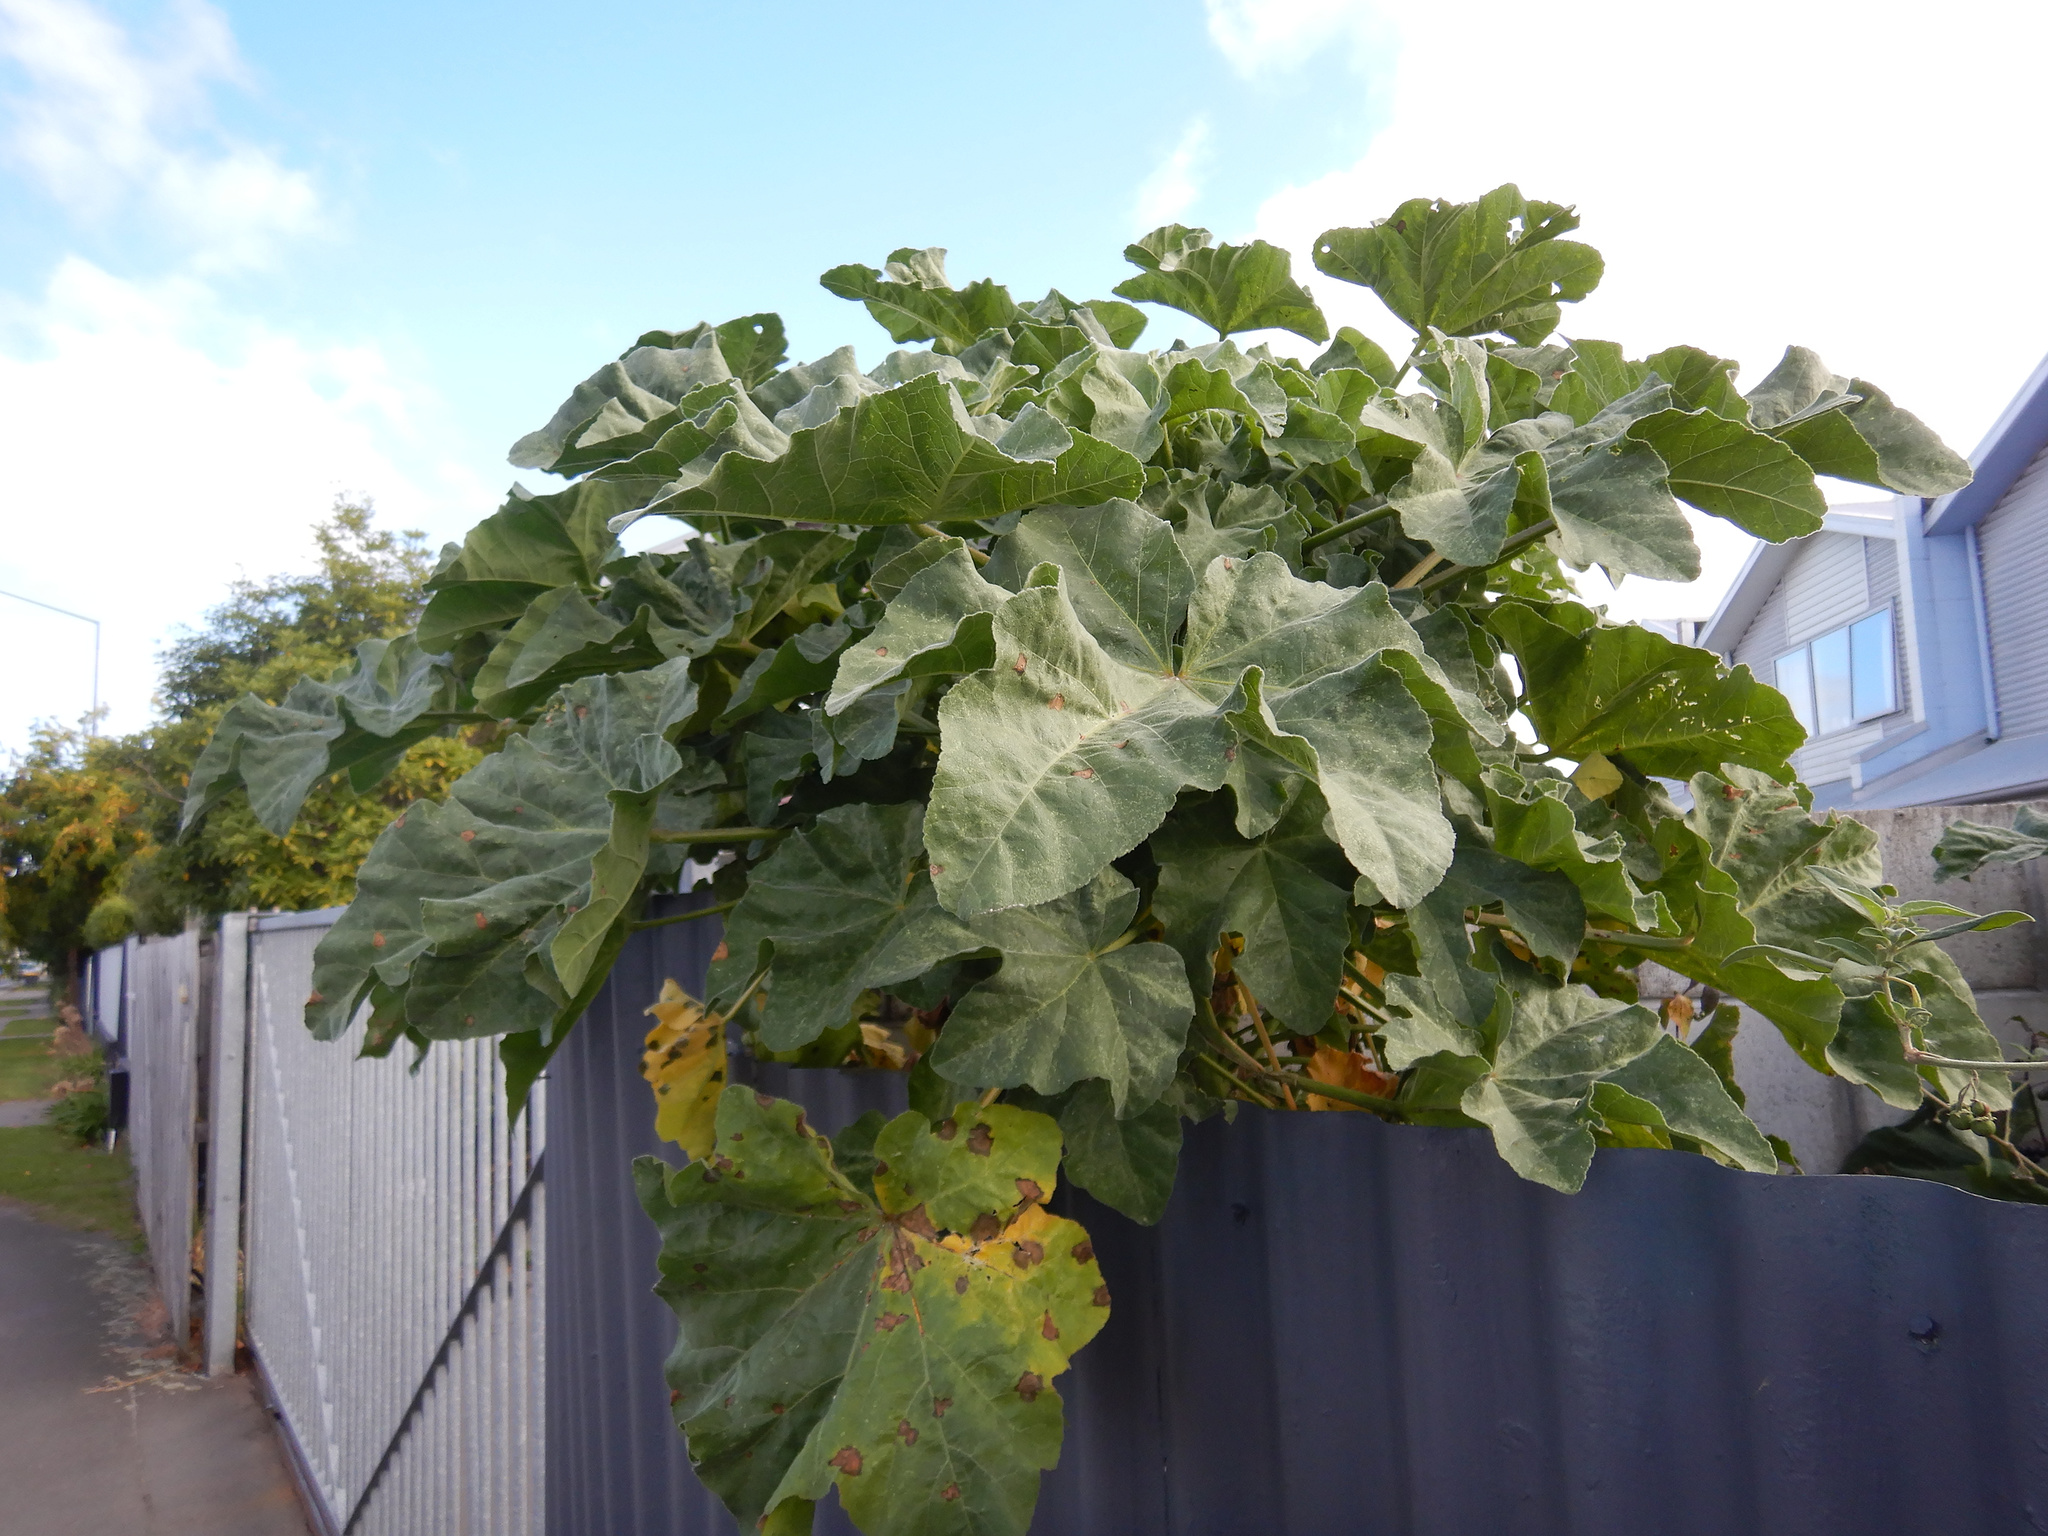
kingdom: Plantae
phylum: Tracheophyta
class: Magnoliopsida
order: Malvales
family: Malvaceae
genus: Malva
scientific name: Malva arborea
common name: Tree mallow
